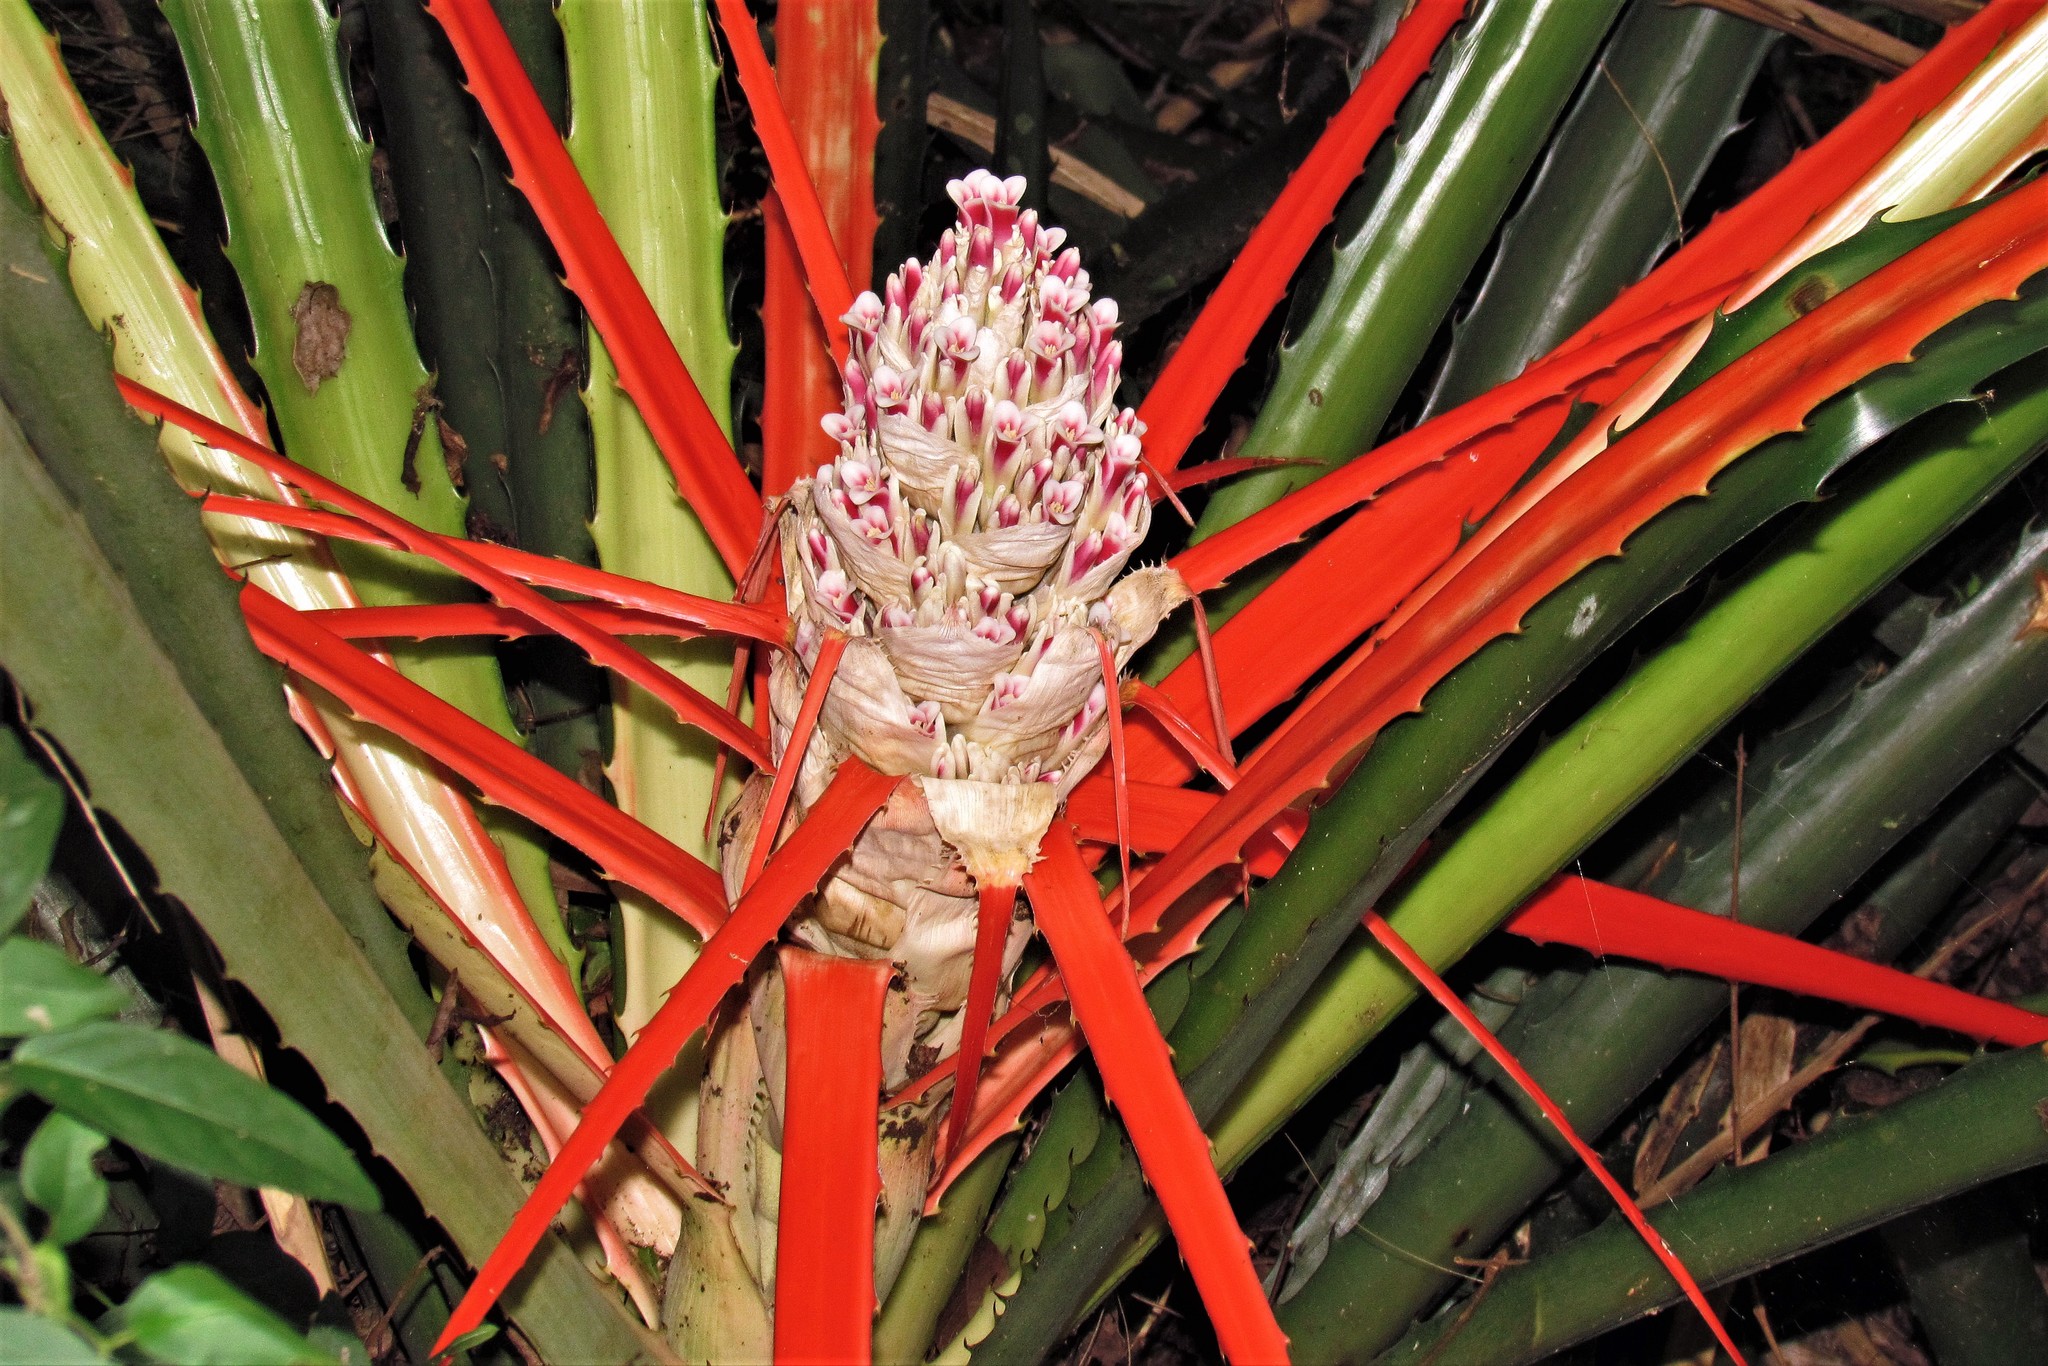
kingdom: Plantae
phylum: Tracheophyta
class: Liliopsida
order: Poales
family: Bromeliaceae
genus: Bromelia
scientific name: Bromelia balansae
